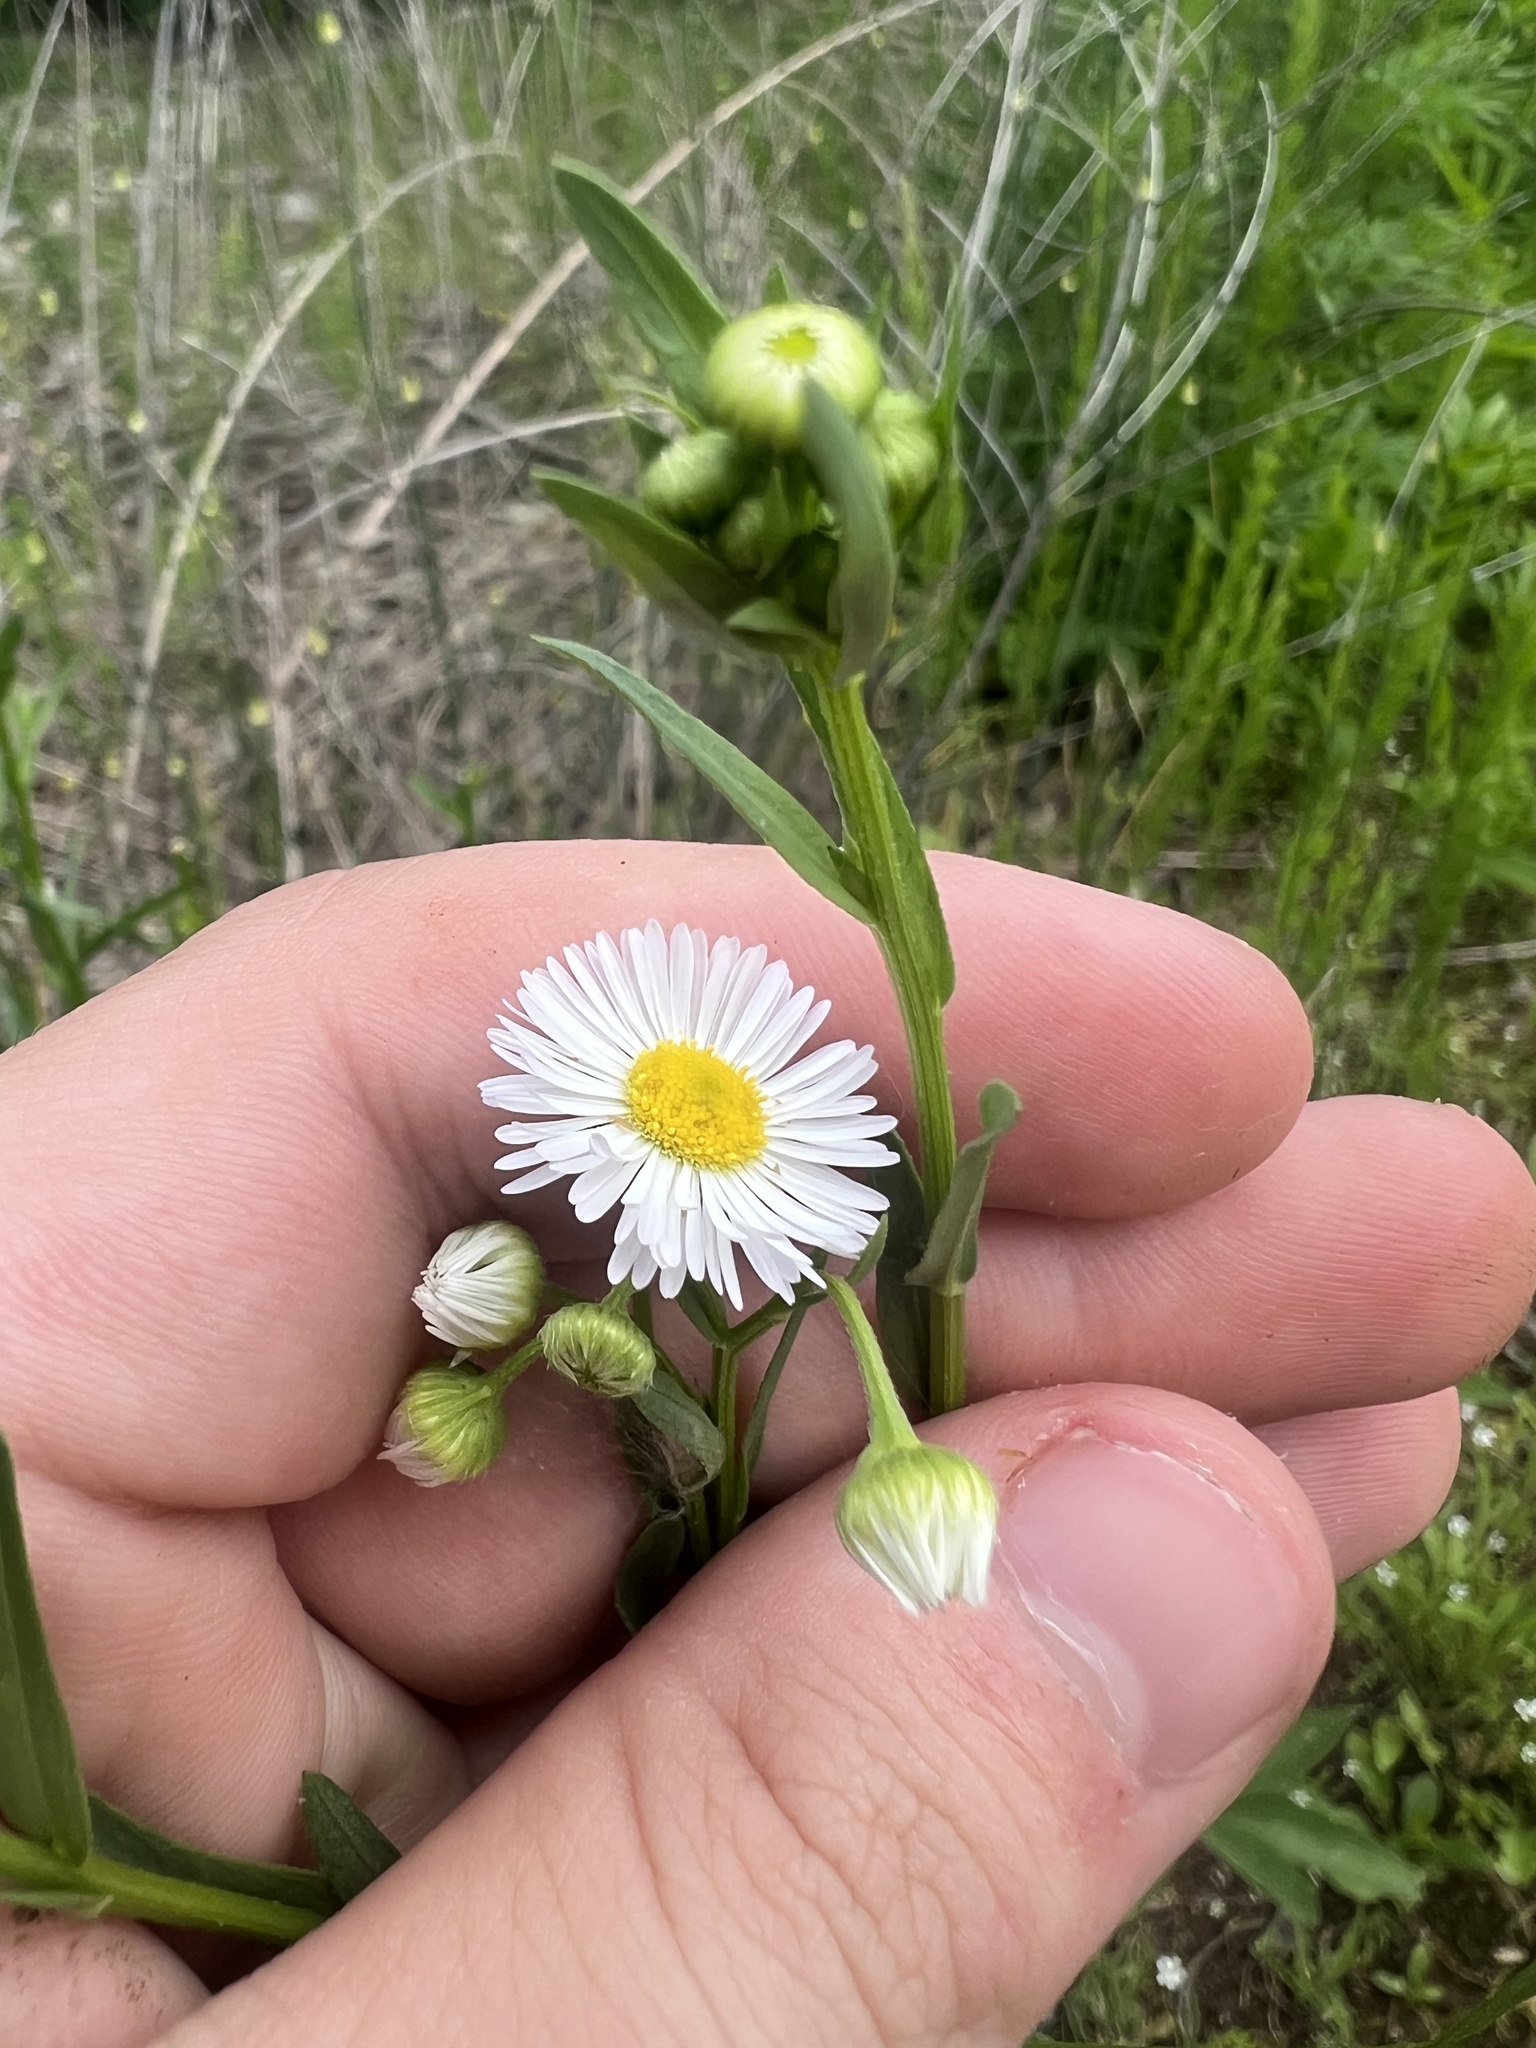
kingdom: Plantae
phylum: Tracheophyta
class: Magnoliopsida
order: Asterales
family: Asteraceae
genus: Erigeron
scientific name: Erigeron annuus
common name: Tall fleabane
